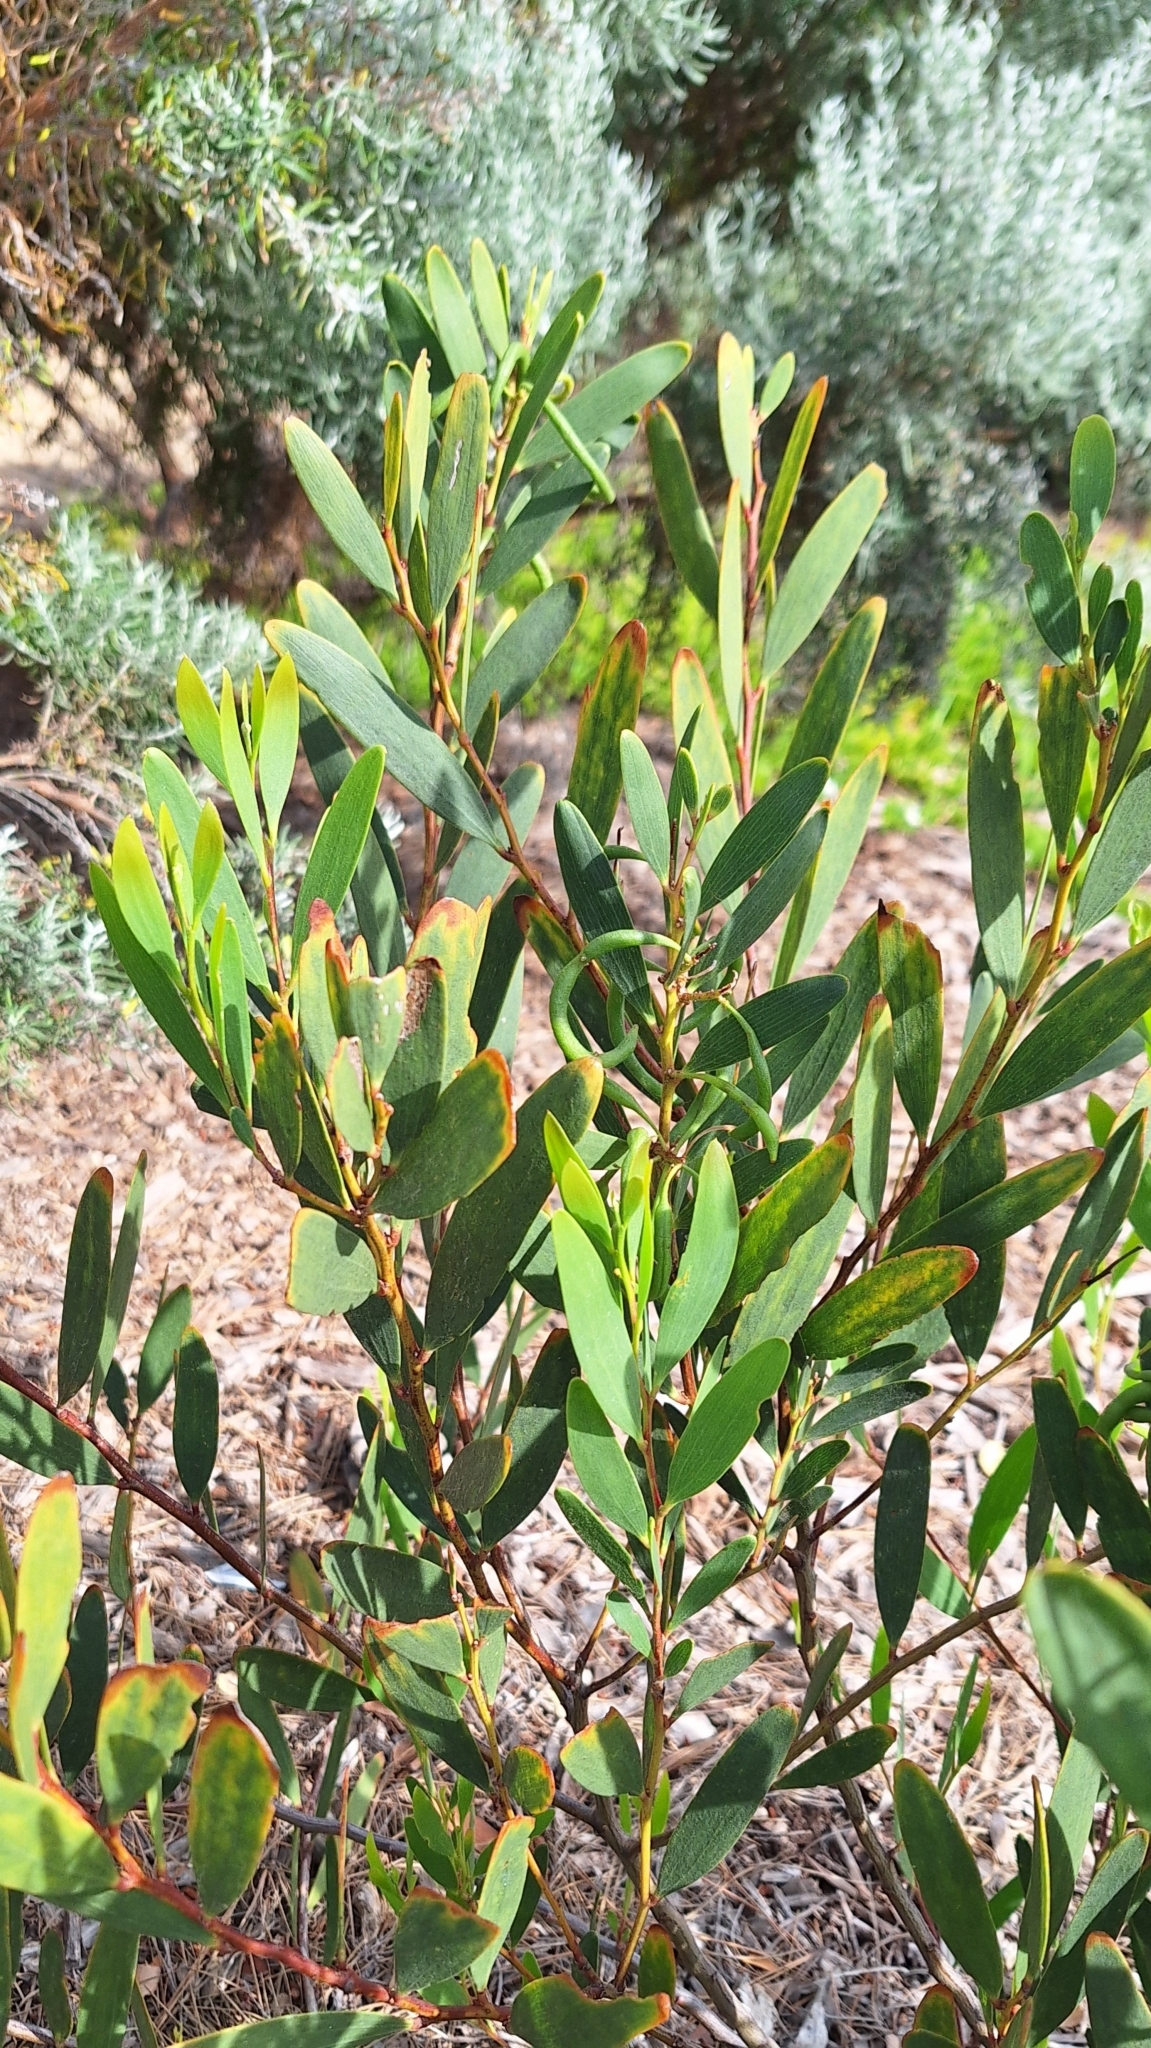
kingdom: Plantae
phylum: Tracheophyta
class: Magnoliopsida
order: Fabales
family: Fabaceae
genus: Acacia
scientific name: Acacia longifolia
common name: Sydney golden wattle
